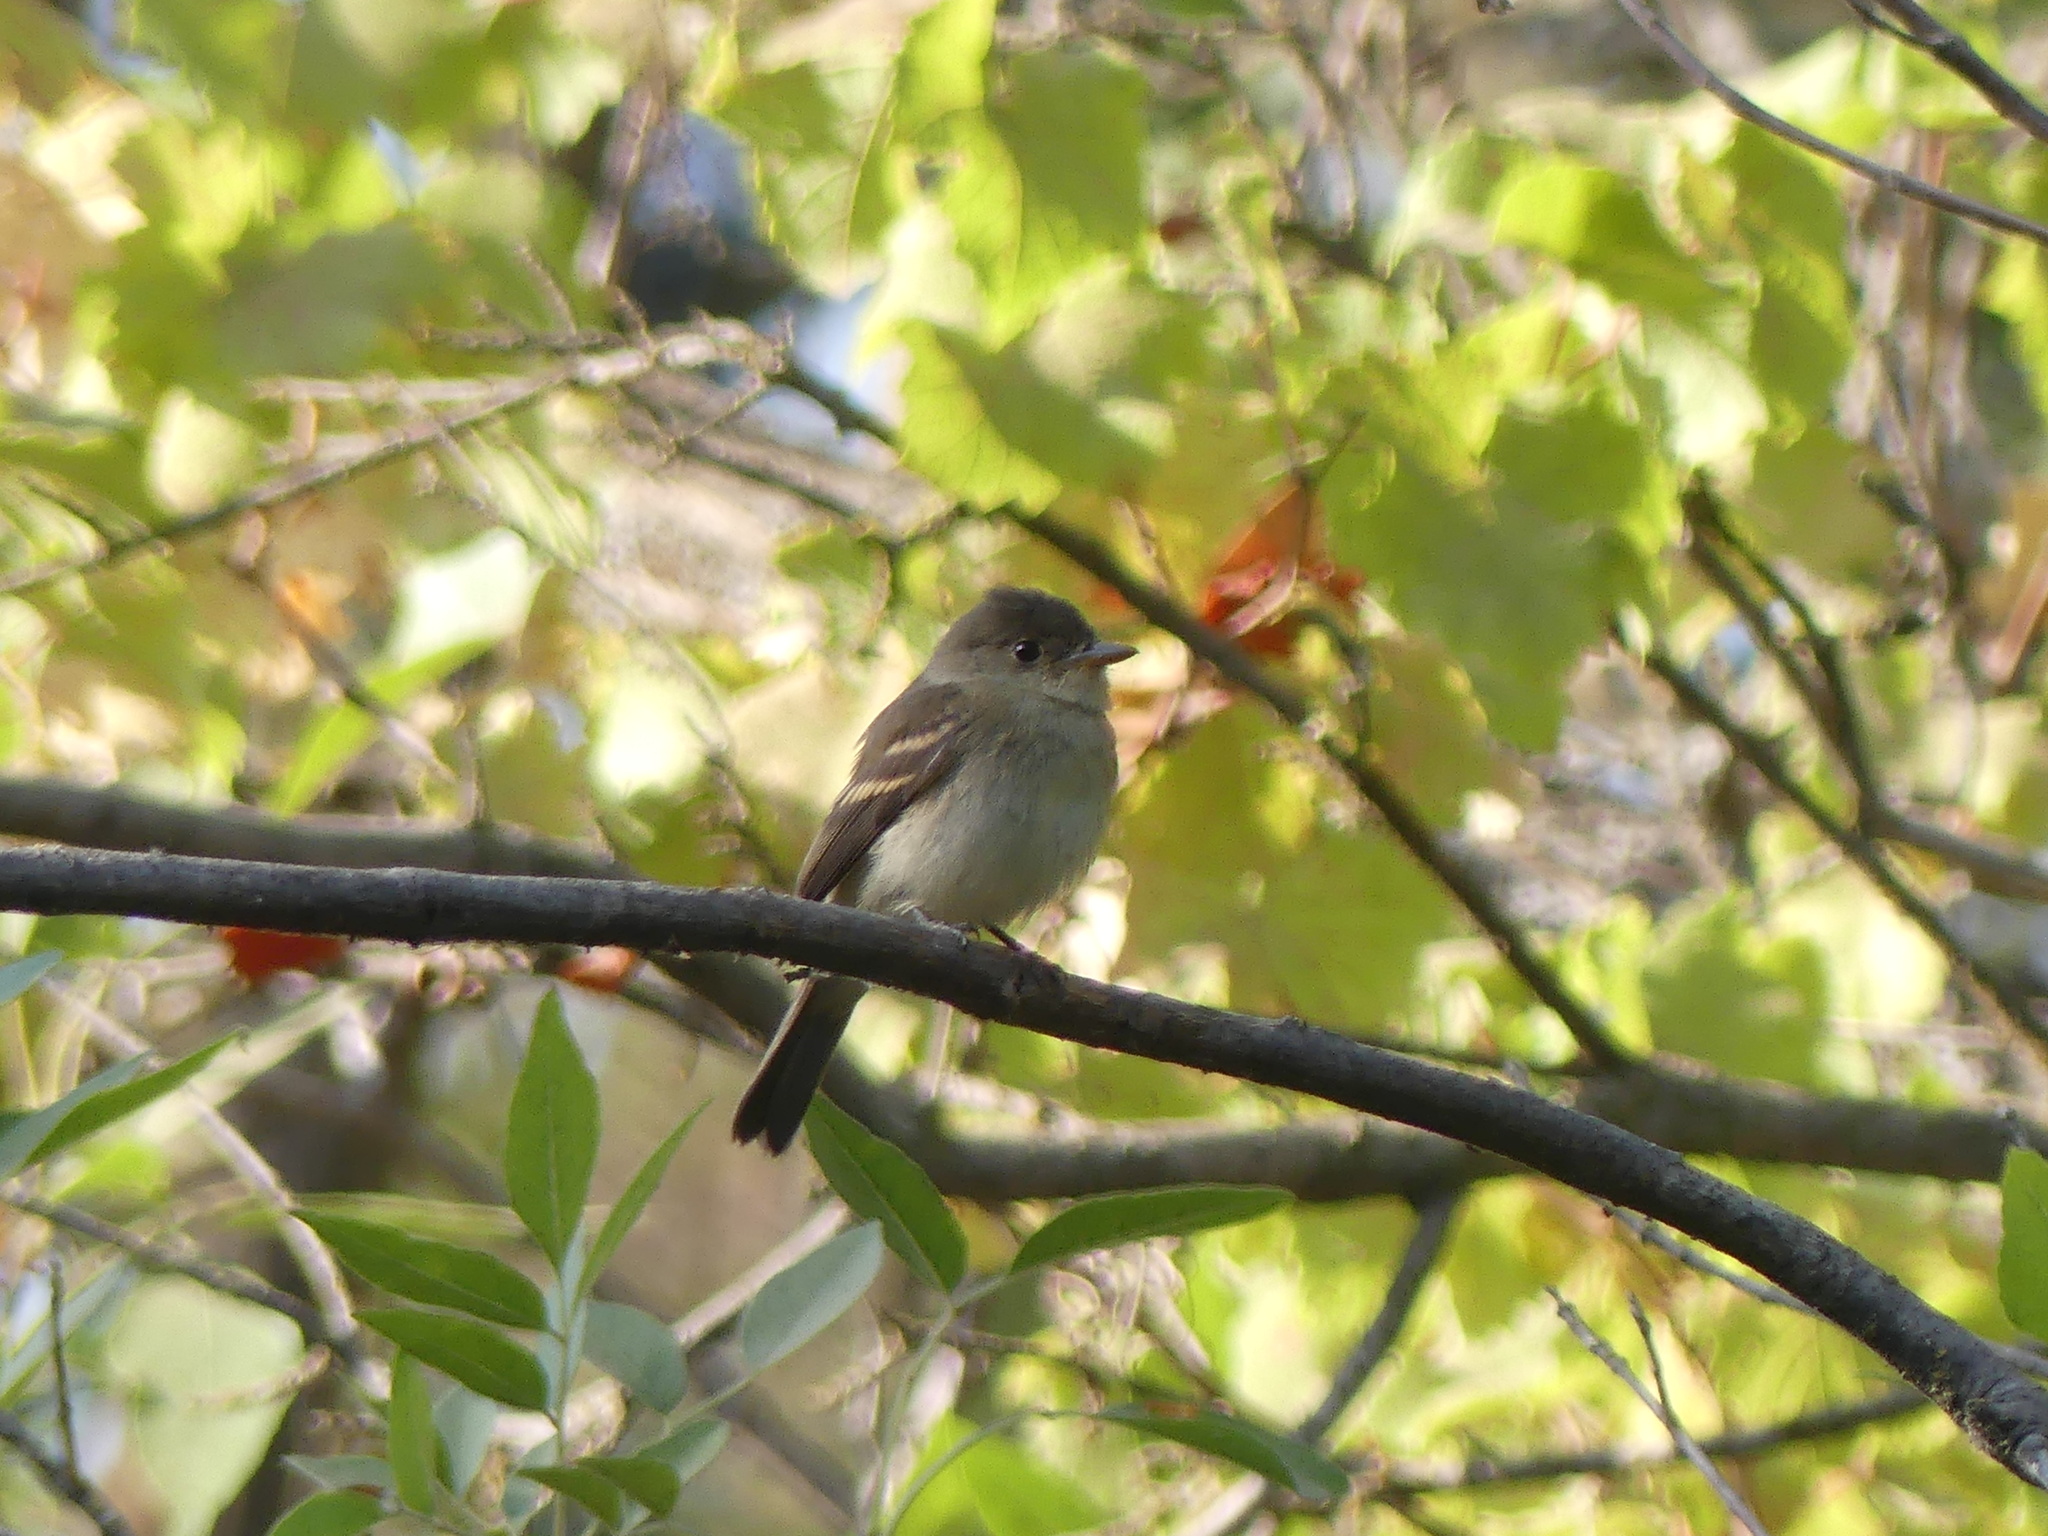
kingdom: Animalia
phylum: Chordata
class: Aves
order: Passeriformes
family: Tyrannidae
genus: Empidonax
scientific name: Empidonax traillii
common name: Willow flycatcher
